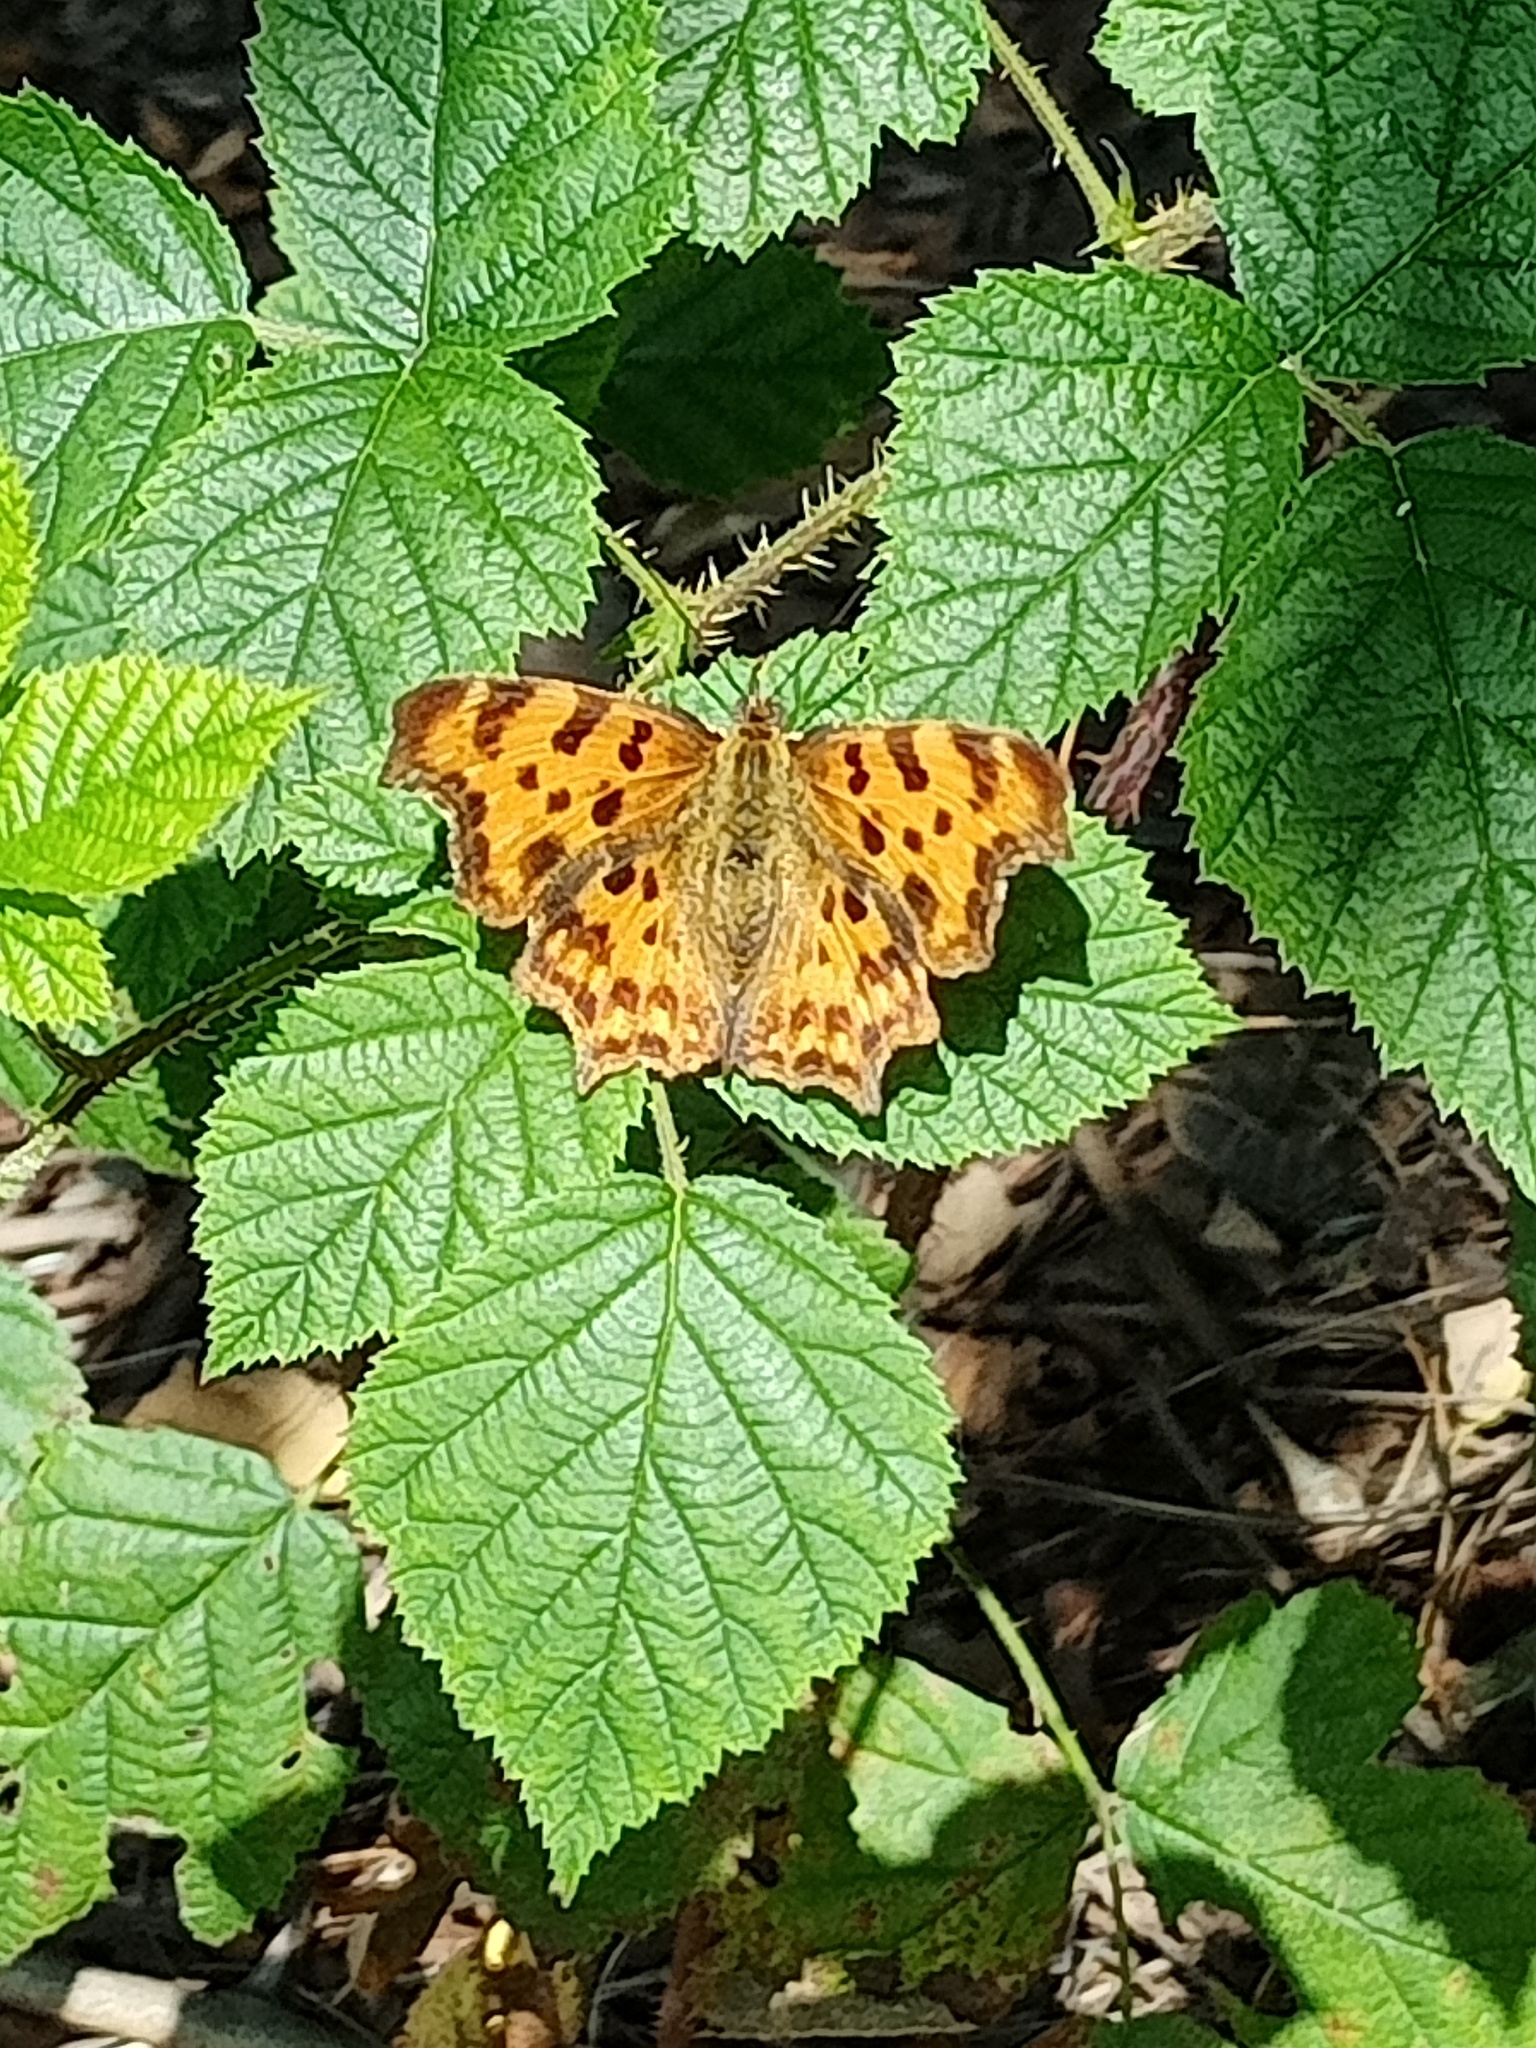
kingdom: Animalia
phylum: Arthropoda
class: Insecta
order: Lepidoptera
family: Nymphalidae
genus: Polygonia
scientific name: Polygonia c-album
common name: Comma
